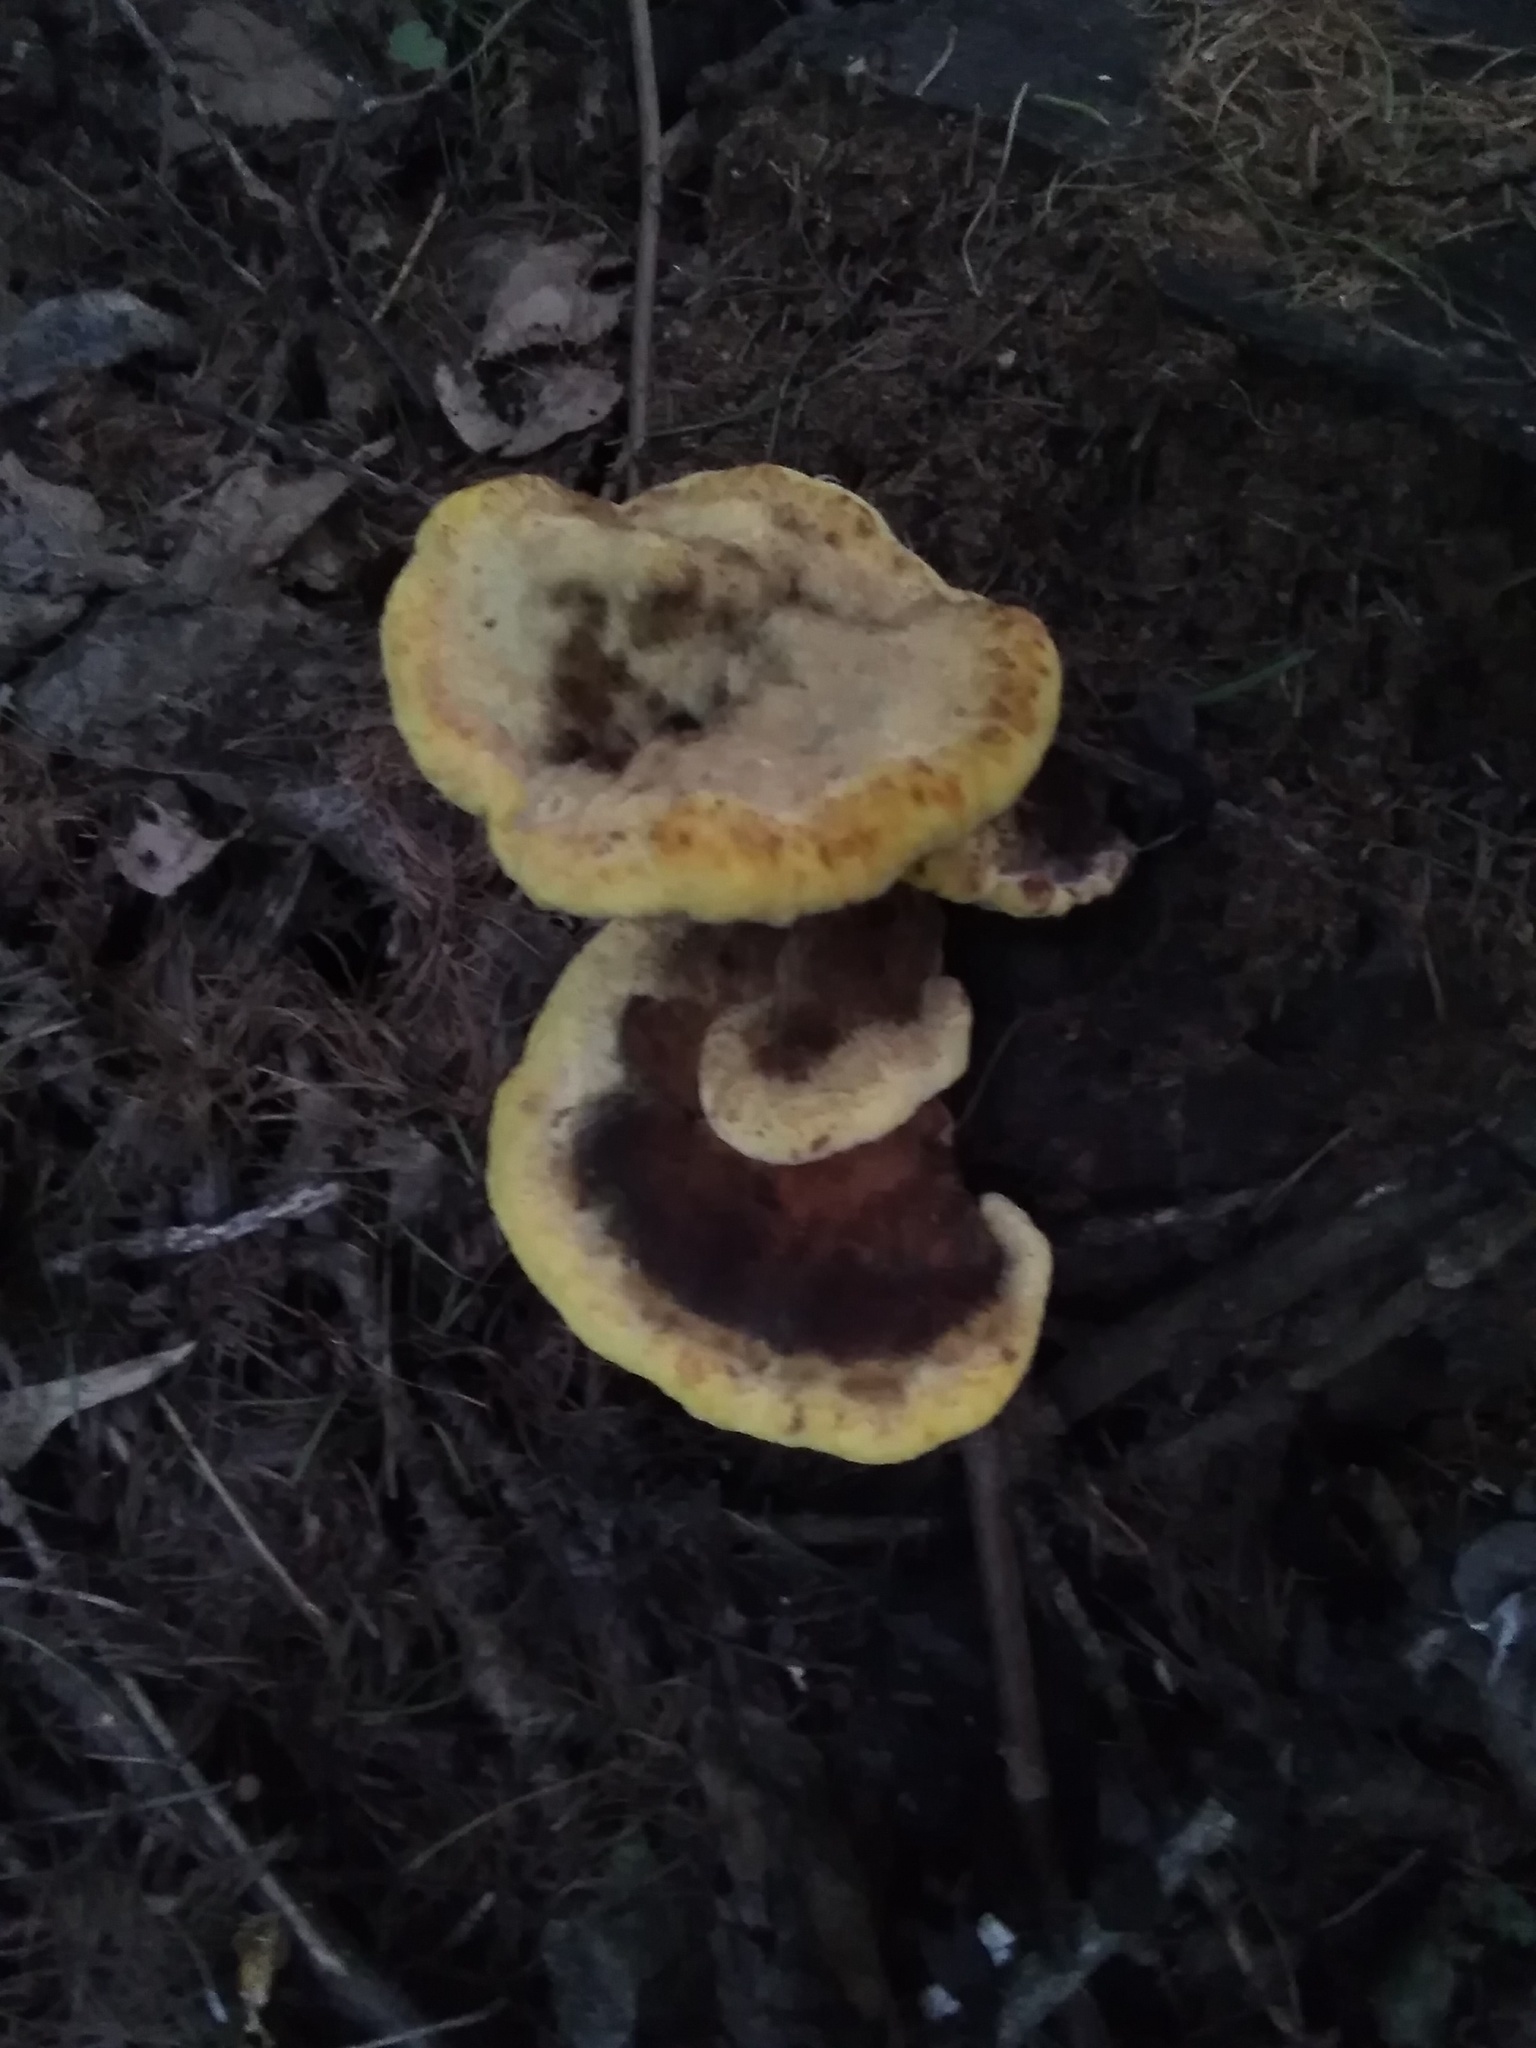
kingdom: Fungi
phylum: Basidiomycota
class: Agaricomycetes
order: Polyporales
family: Laetiporaceae
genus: Phaeolus
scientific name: Phaeolus schweinitzii
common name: Dyer's mazegill
